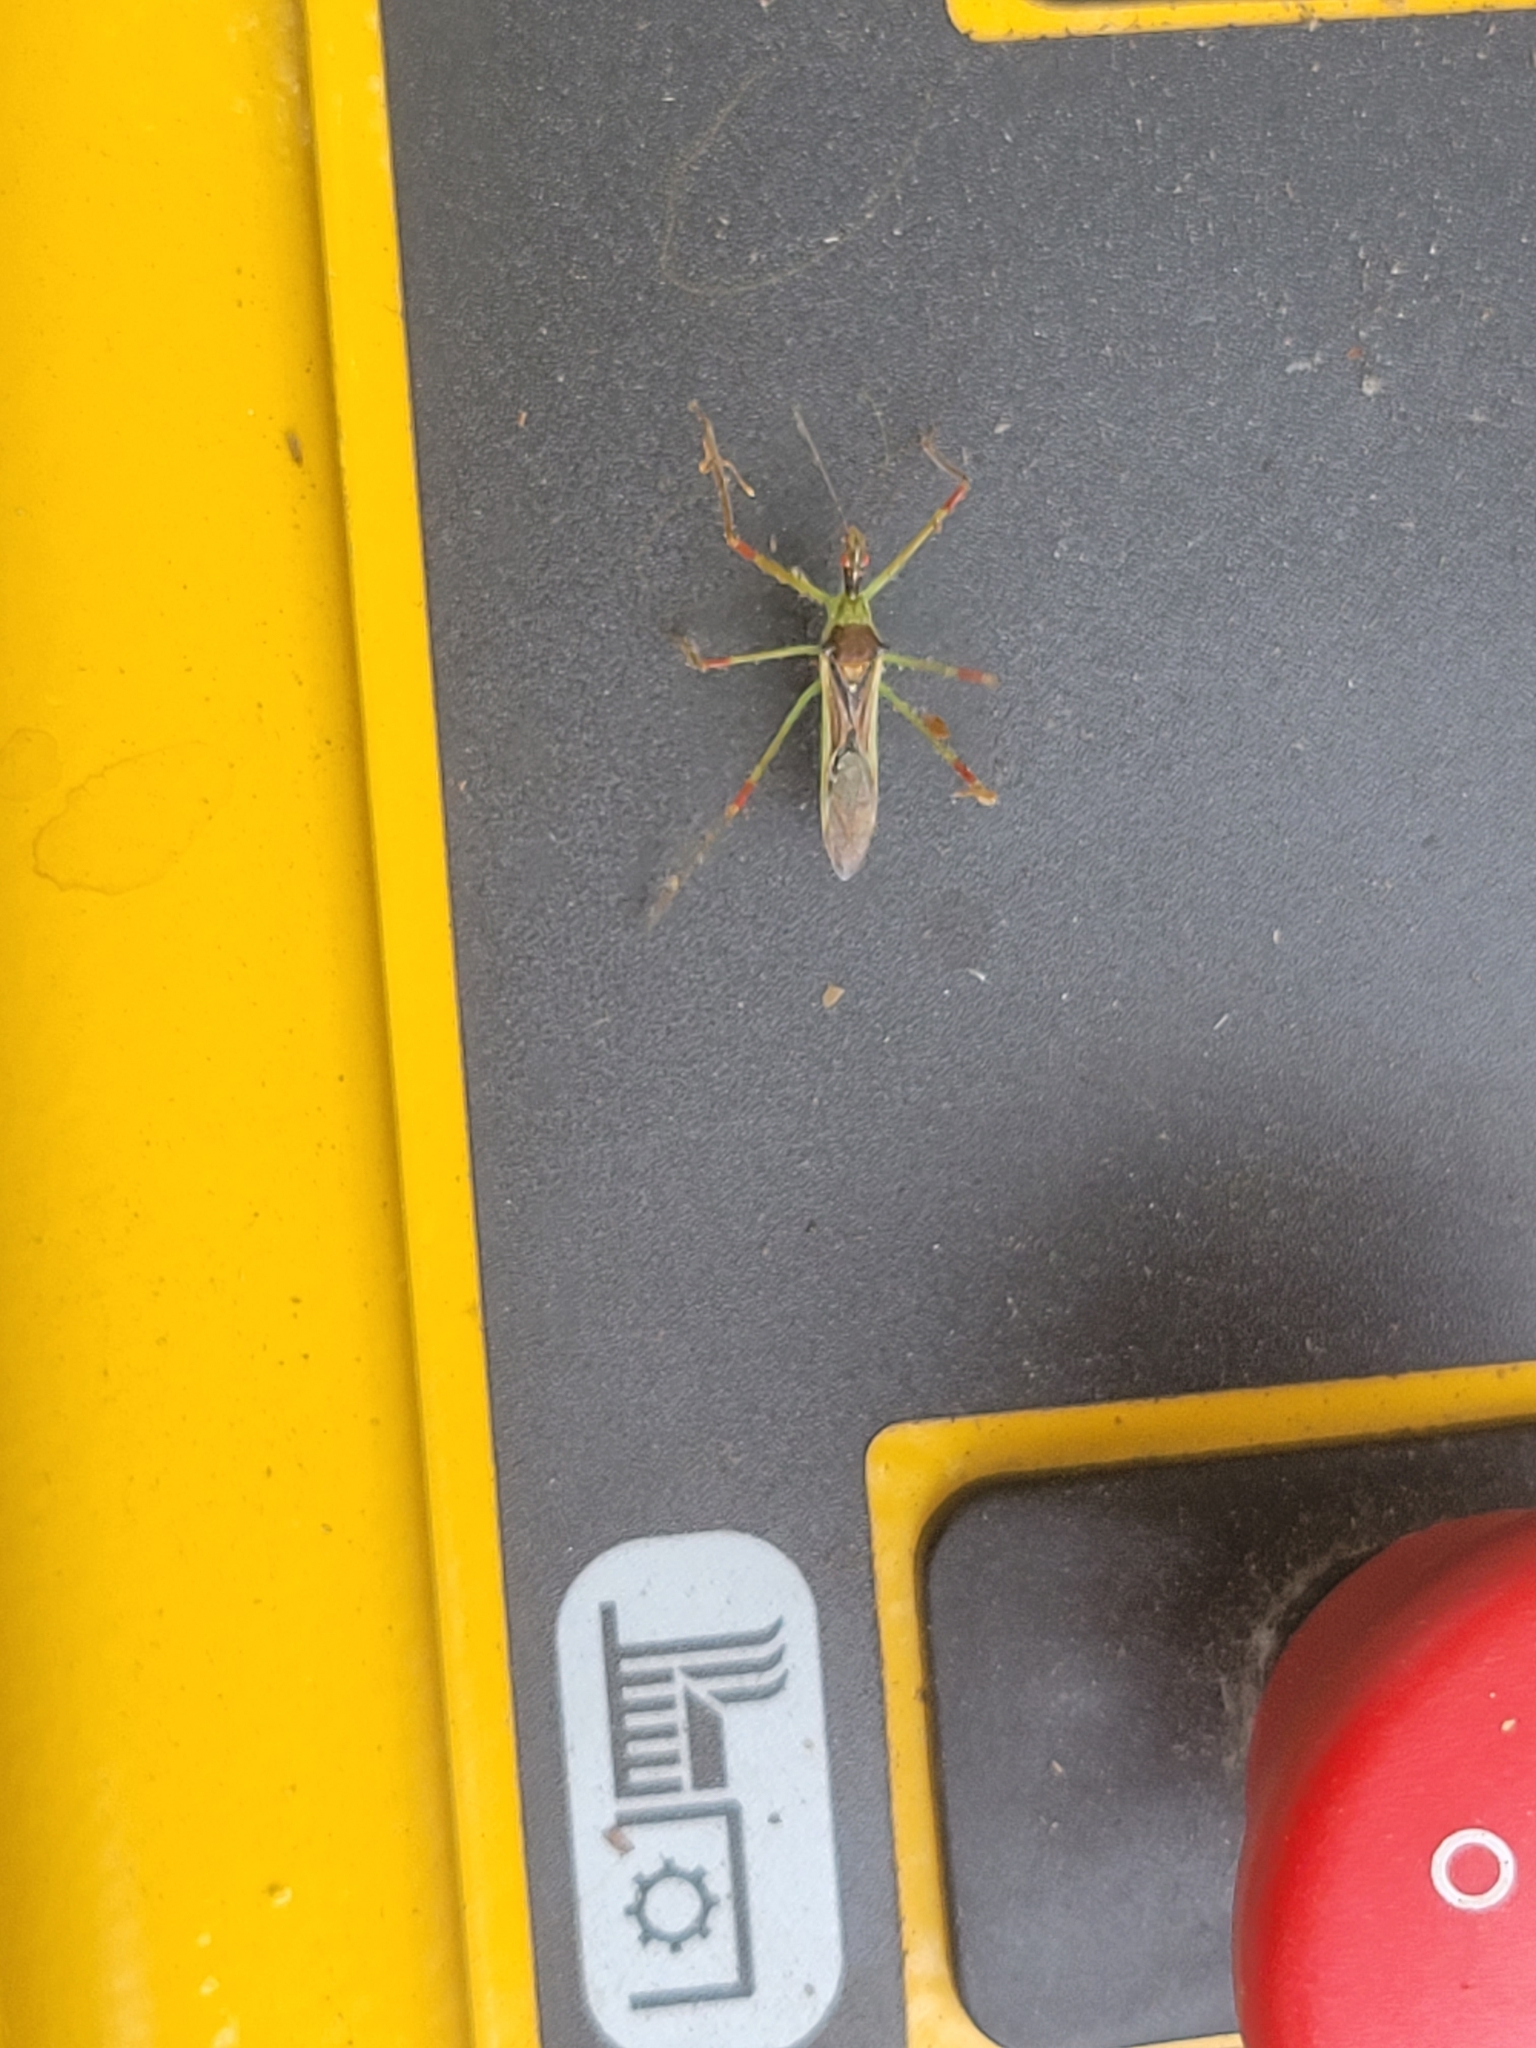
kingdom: Animalia
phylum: Arthropoda
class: Insecta
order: Hemiptera
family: Reduviidae
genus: Zelus
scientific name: Zelus luridus
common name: Pale green assassin bug
